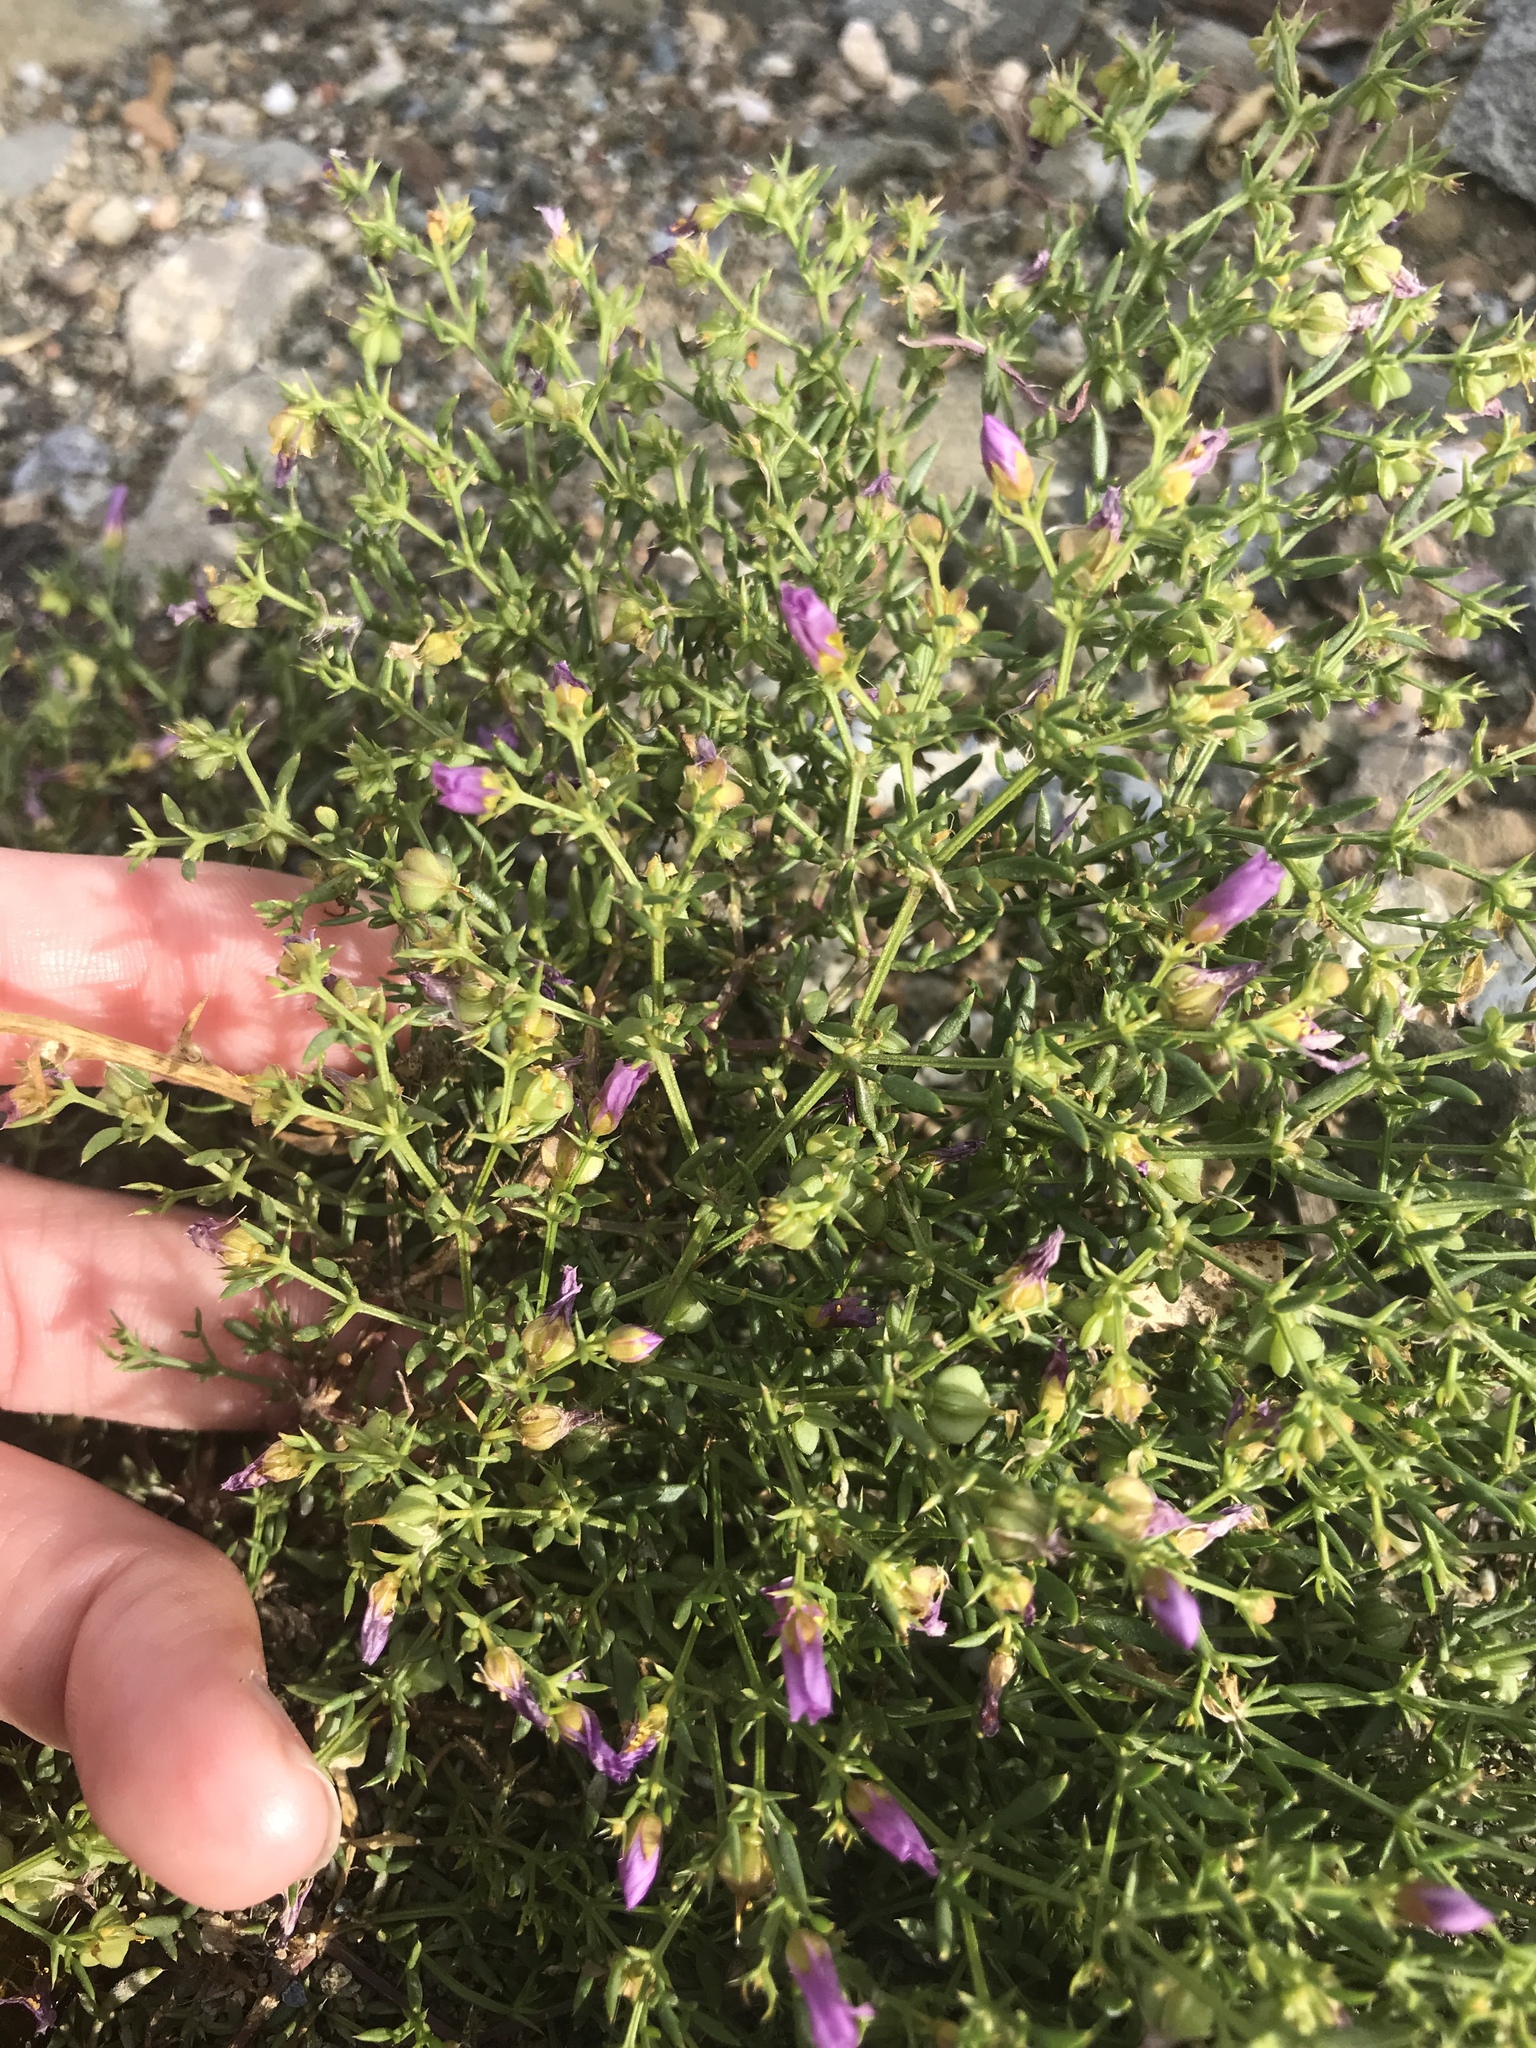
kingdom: Plantae
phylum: Tracheophyta
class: Magnoliopsida
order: Zygophyllales
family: Zygophyllaceae
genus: Fagonia
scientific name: Fagonia laevis
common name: California fagonbush
